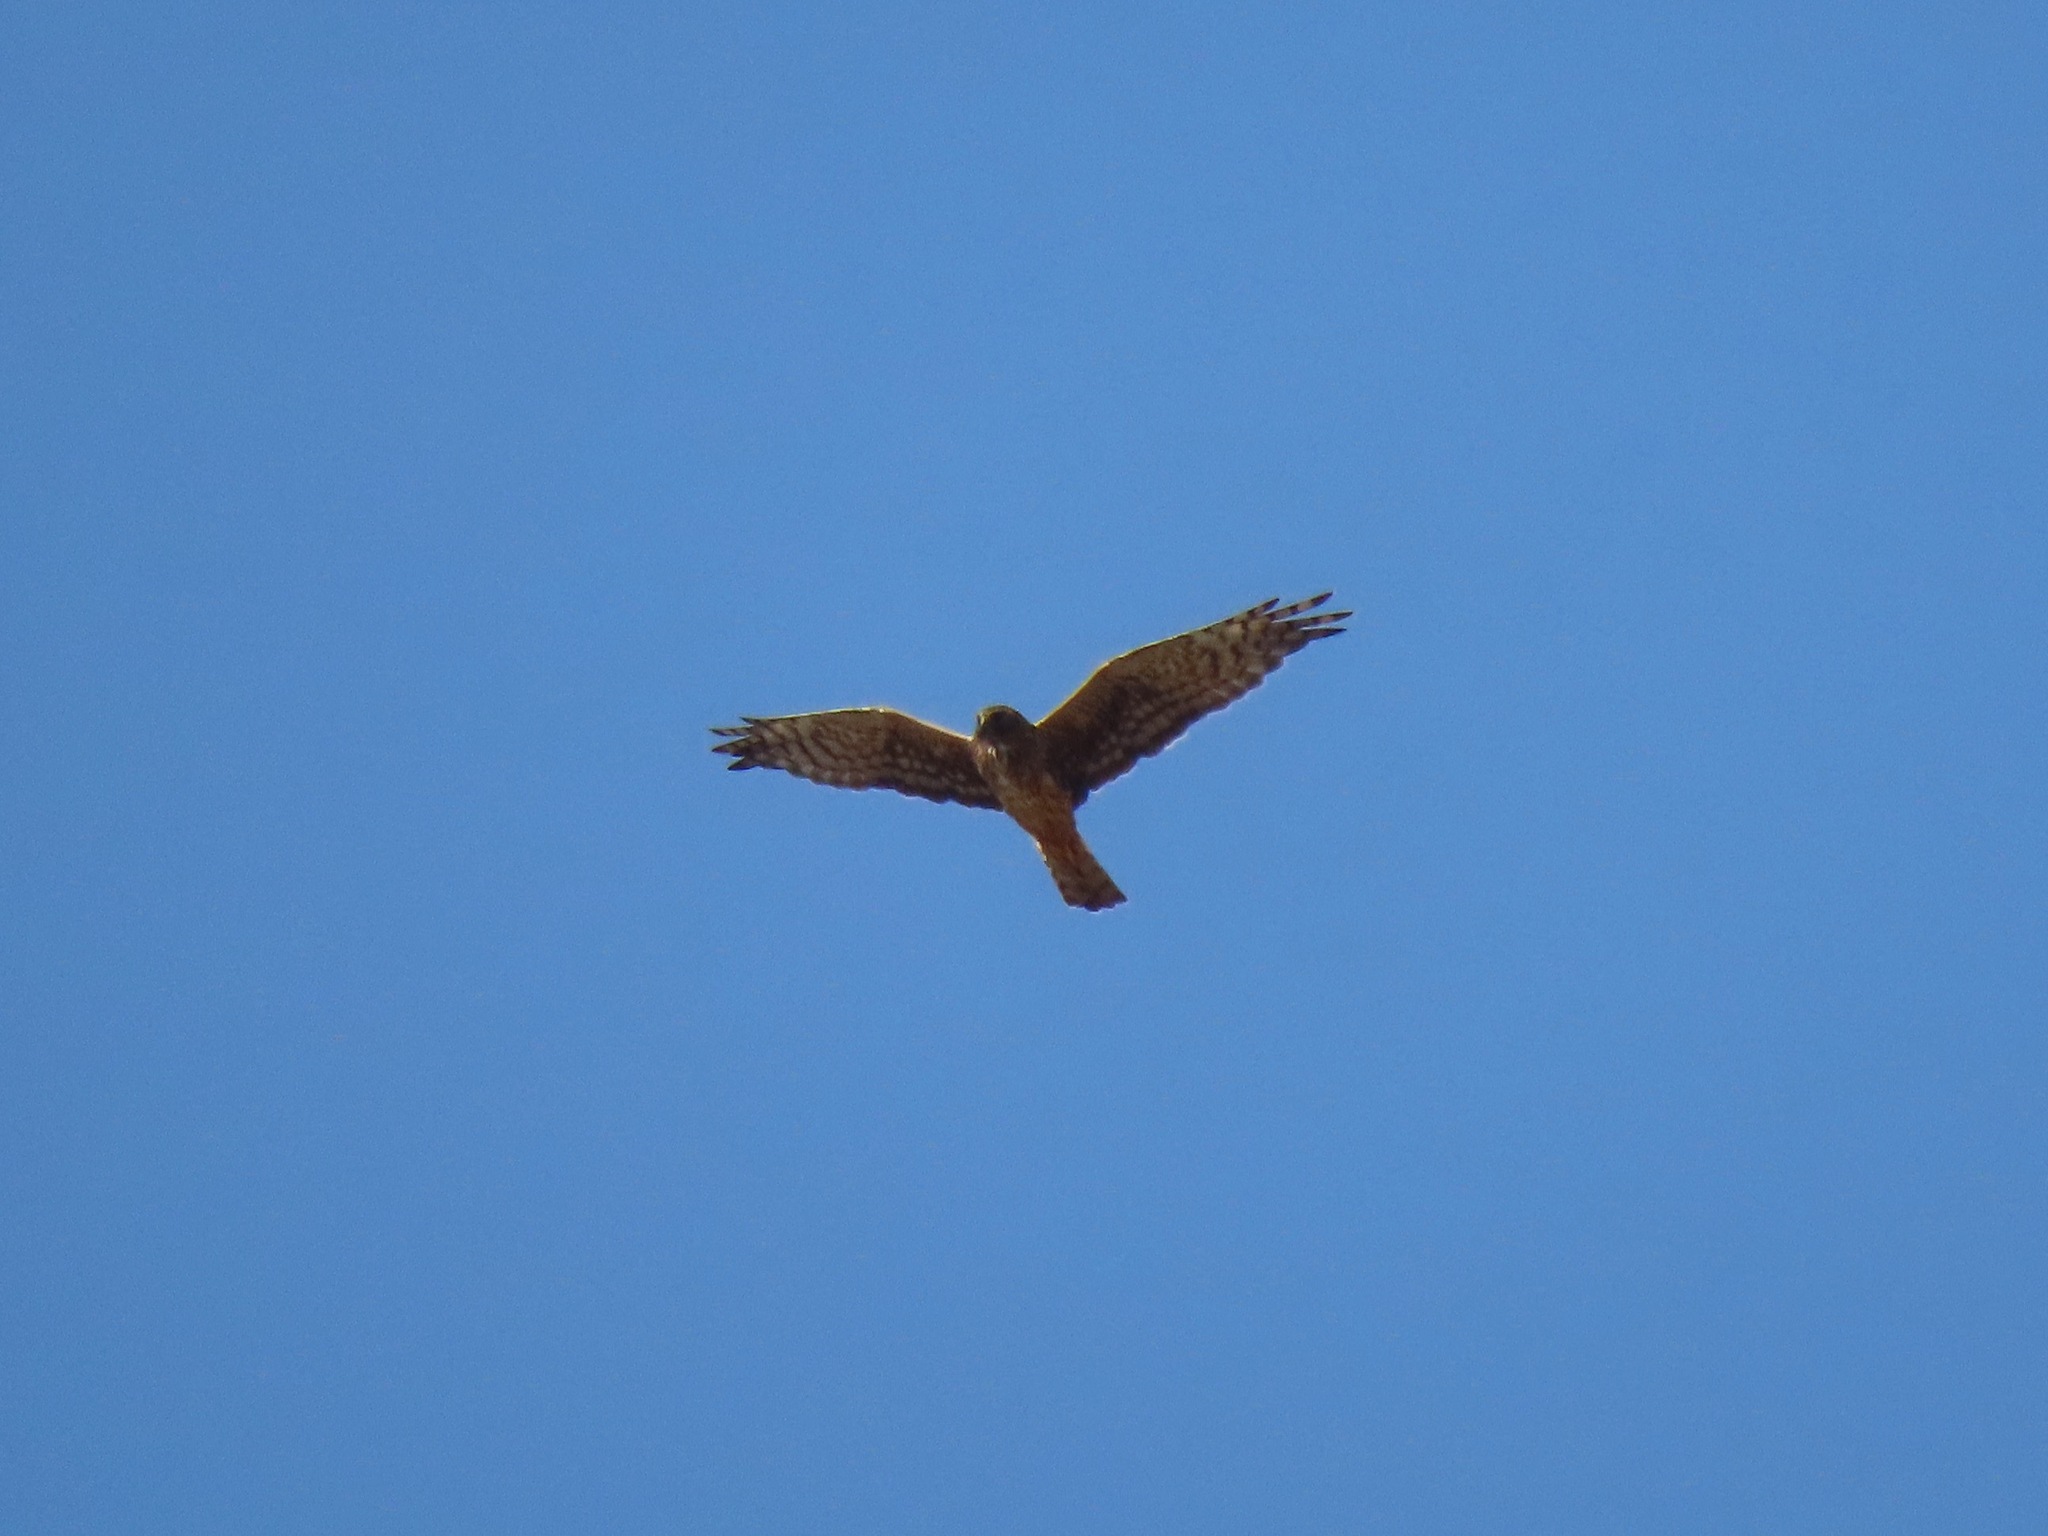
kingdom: Animalia
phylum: Chordata
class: Aves
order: Accipitriformes
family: Accipitridae
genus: Circus
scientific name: Circus cyaneus
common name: Hen harrier
